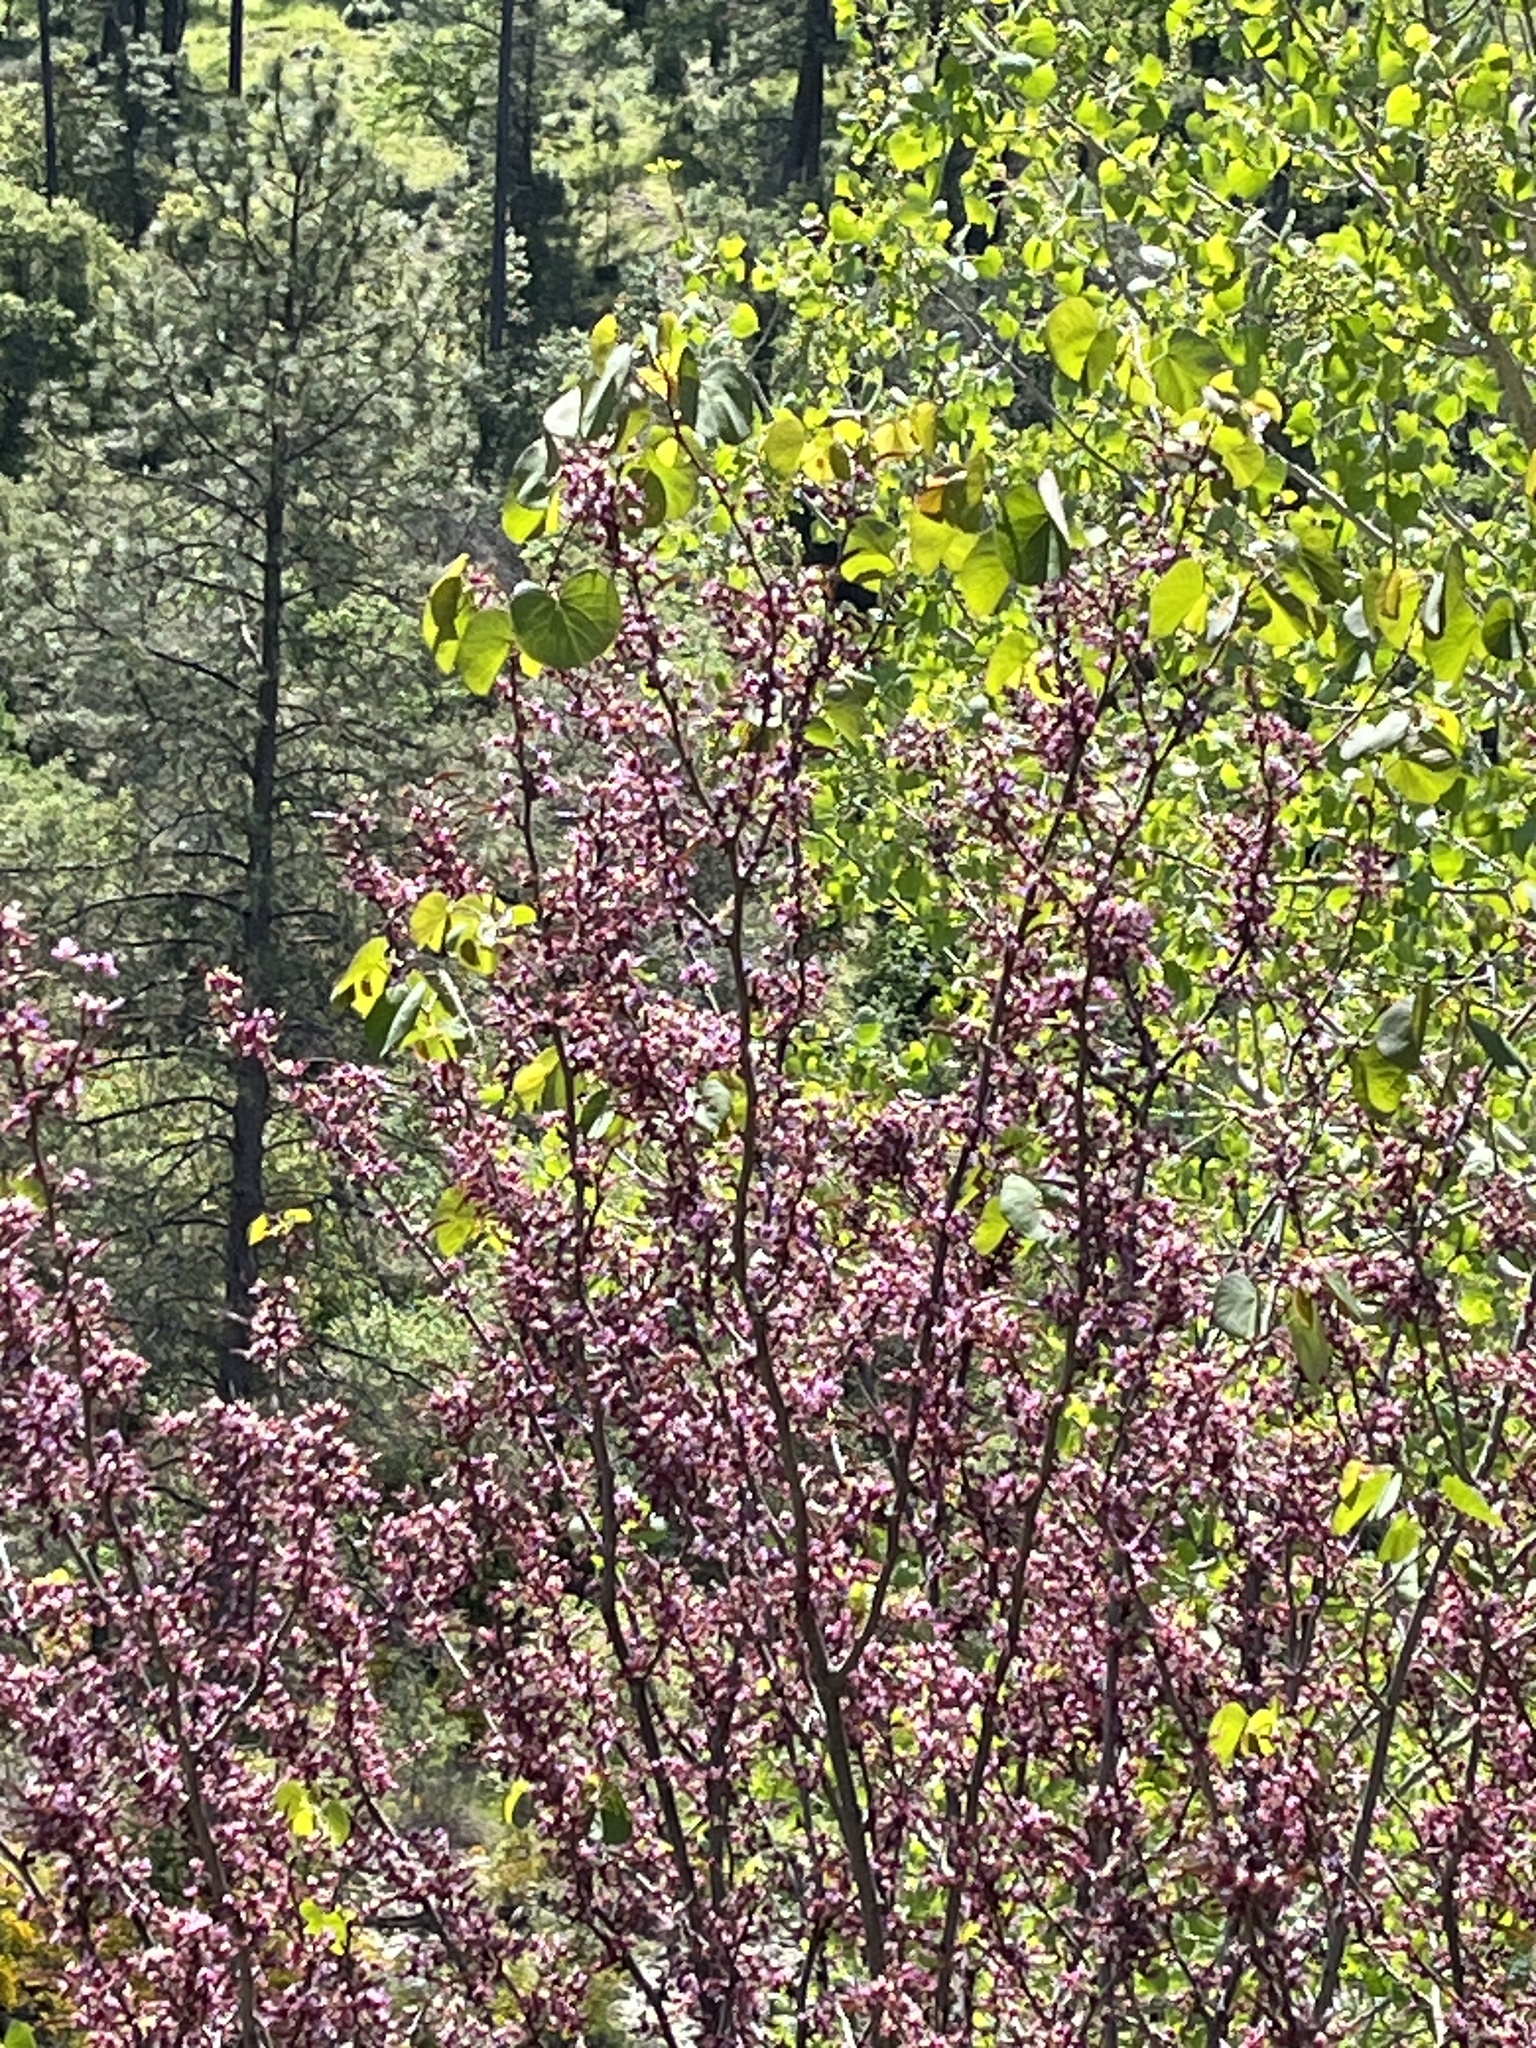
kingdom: Plantae
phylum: Tracheophyta
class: Magnoliopsida
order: Fabales
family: Fabaceae
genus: Cercis
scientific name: Cercis occidentalis
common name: California redbud
